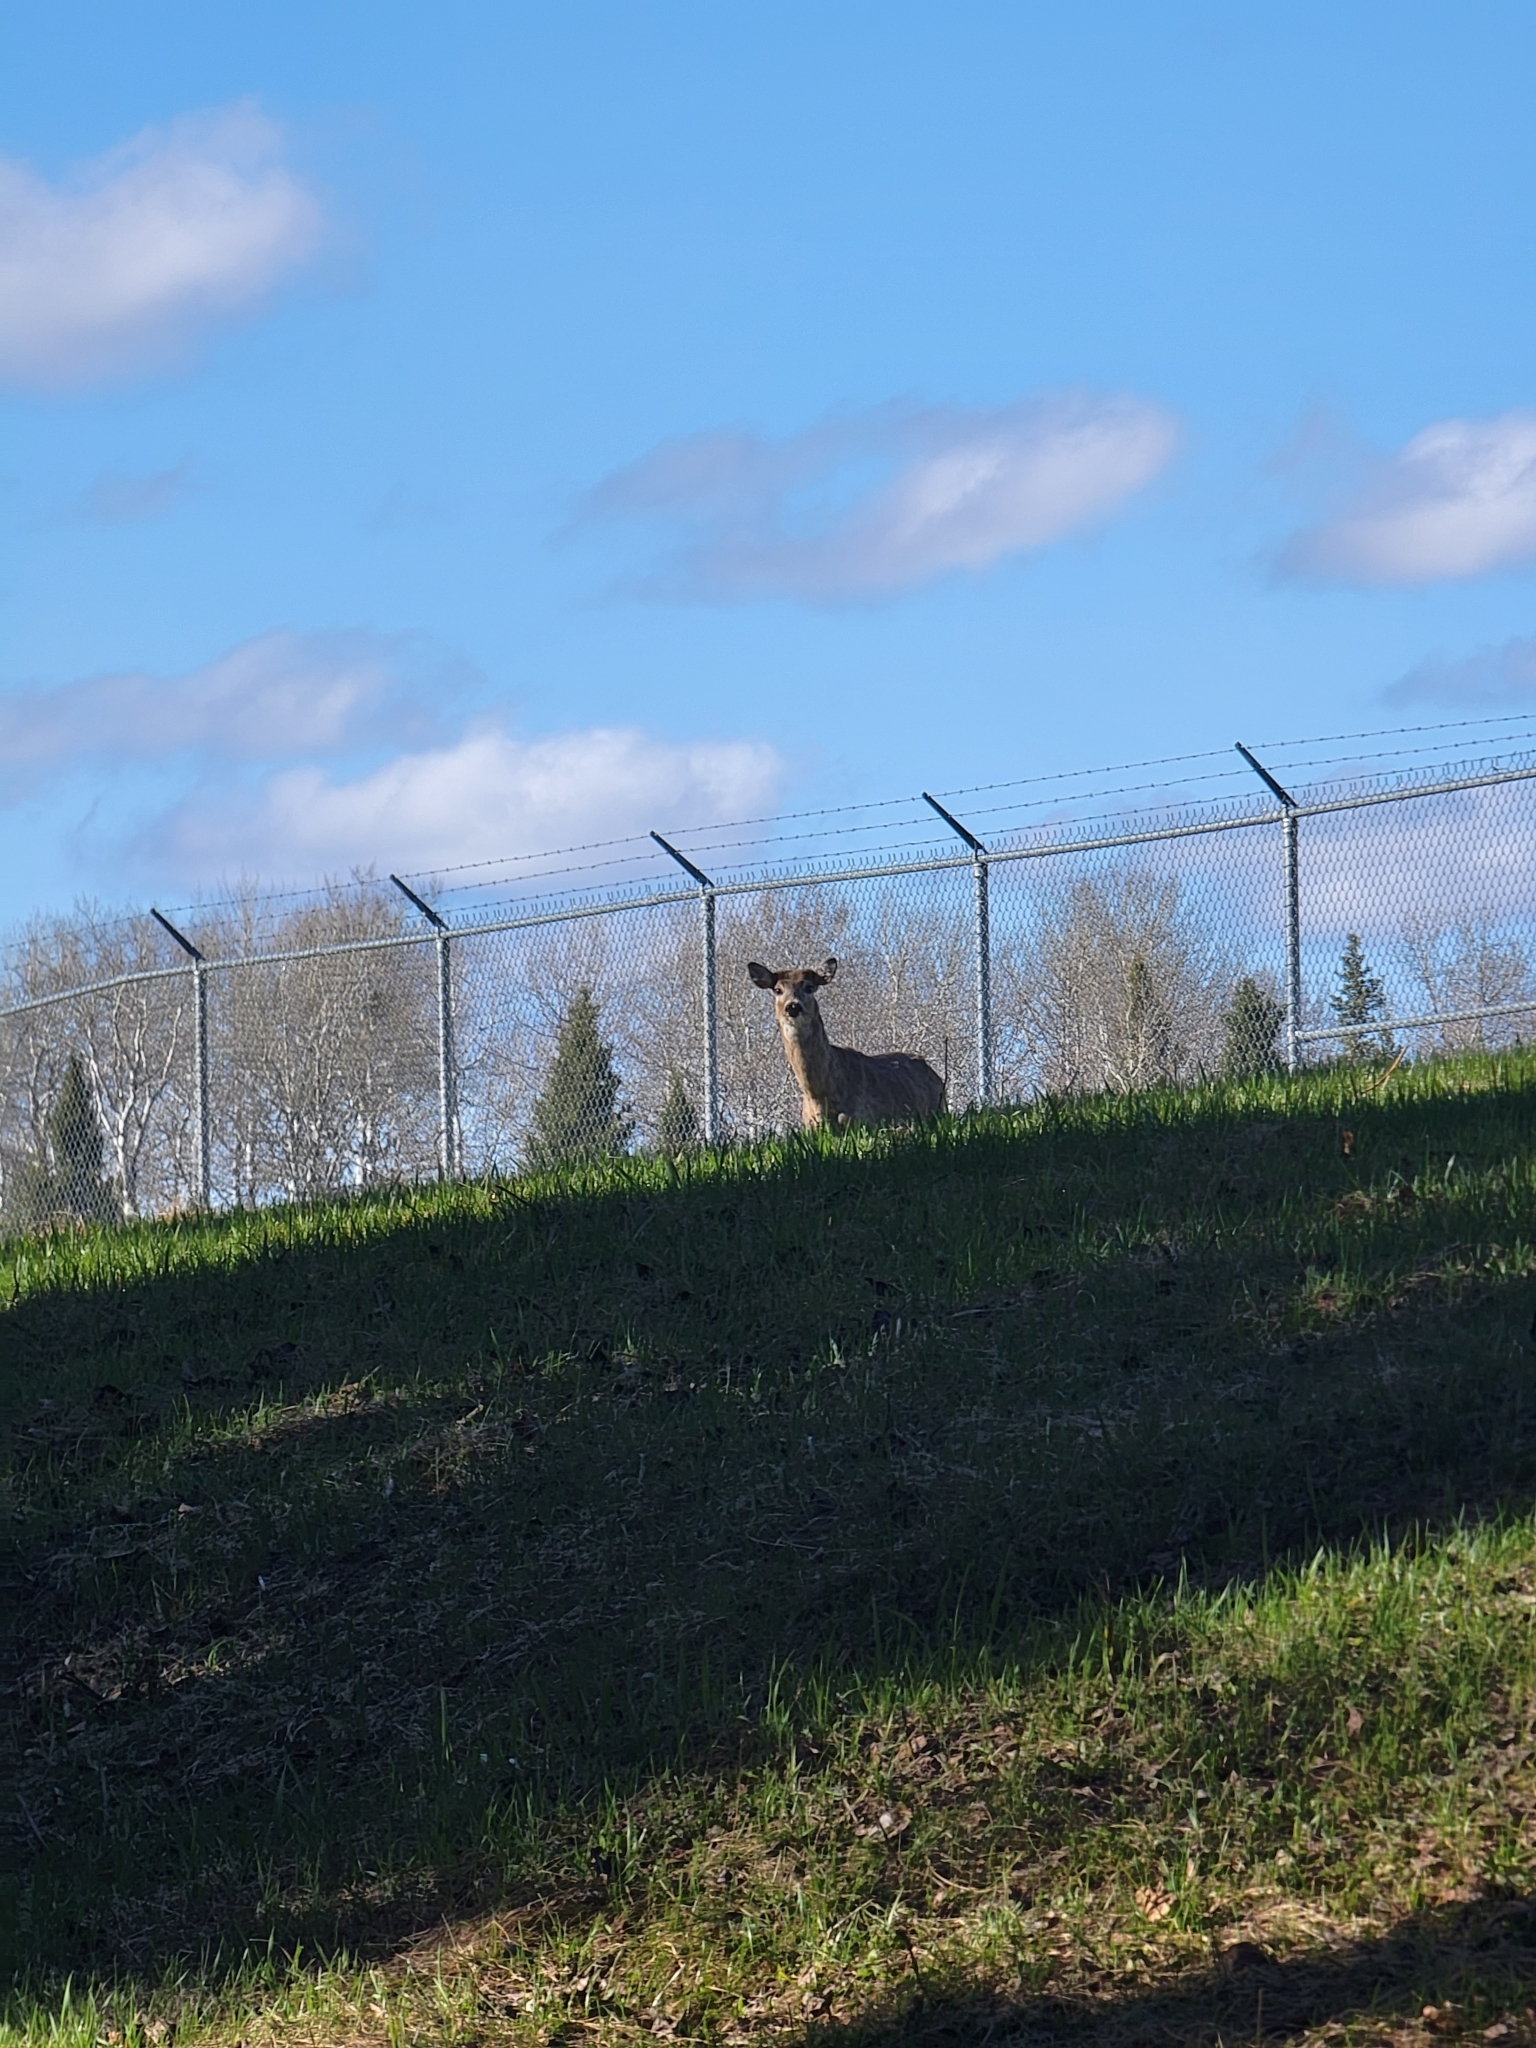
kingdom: Animalia
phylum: Chordata
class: Mammalia
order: Artiodactyla
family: Cervidae
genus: Odocoileus
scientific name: Odocoileus virginianus
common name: White-tailed deer
